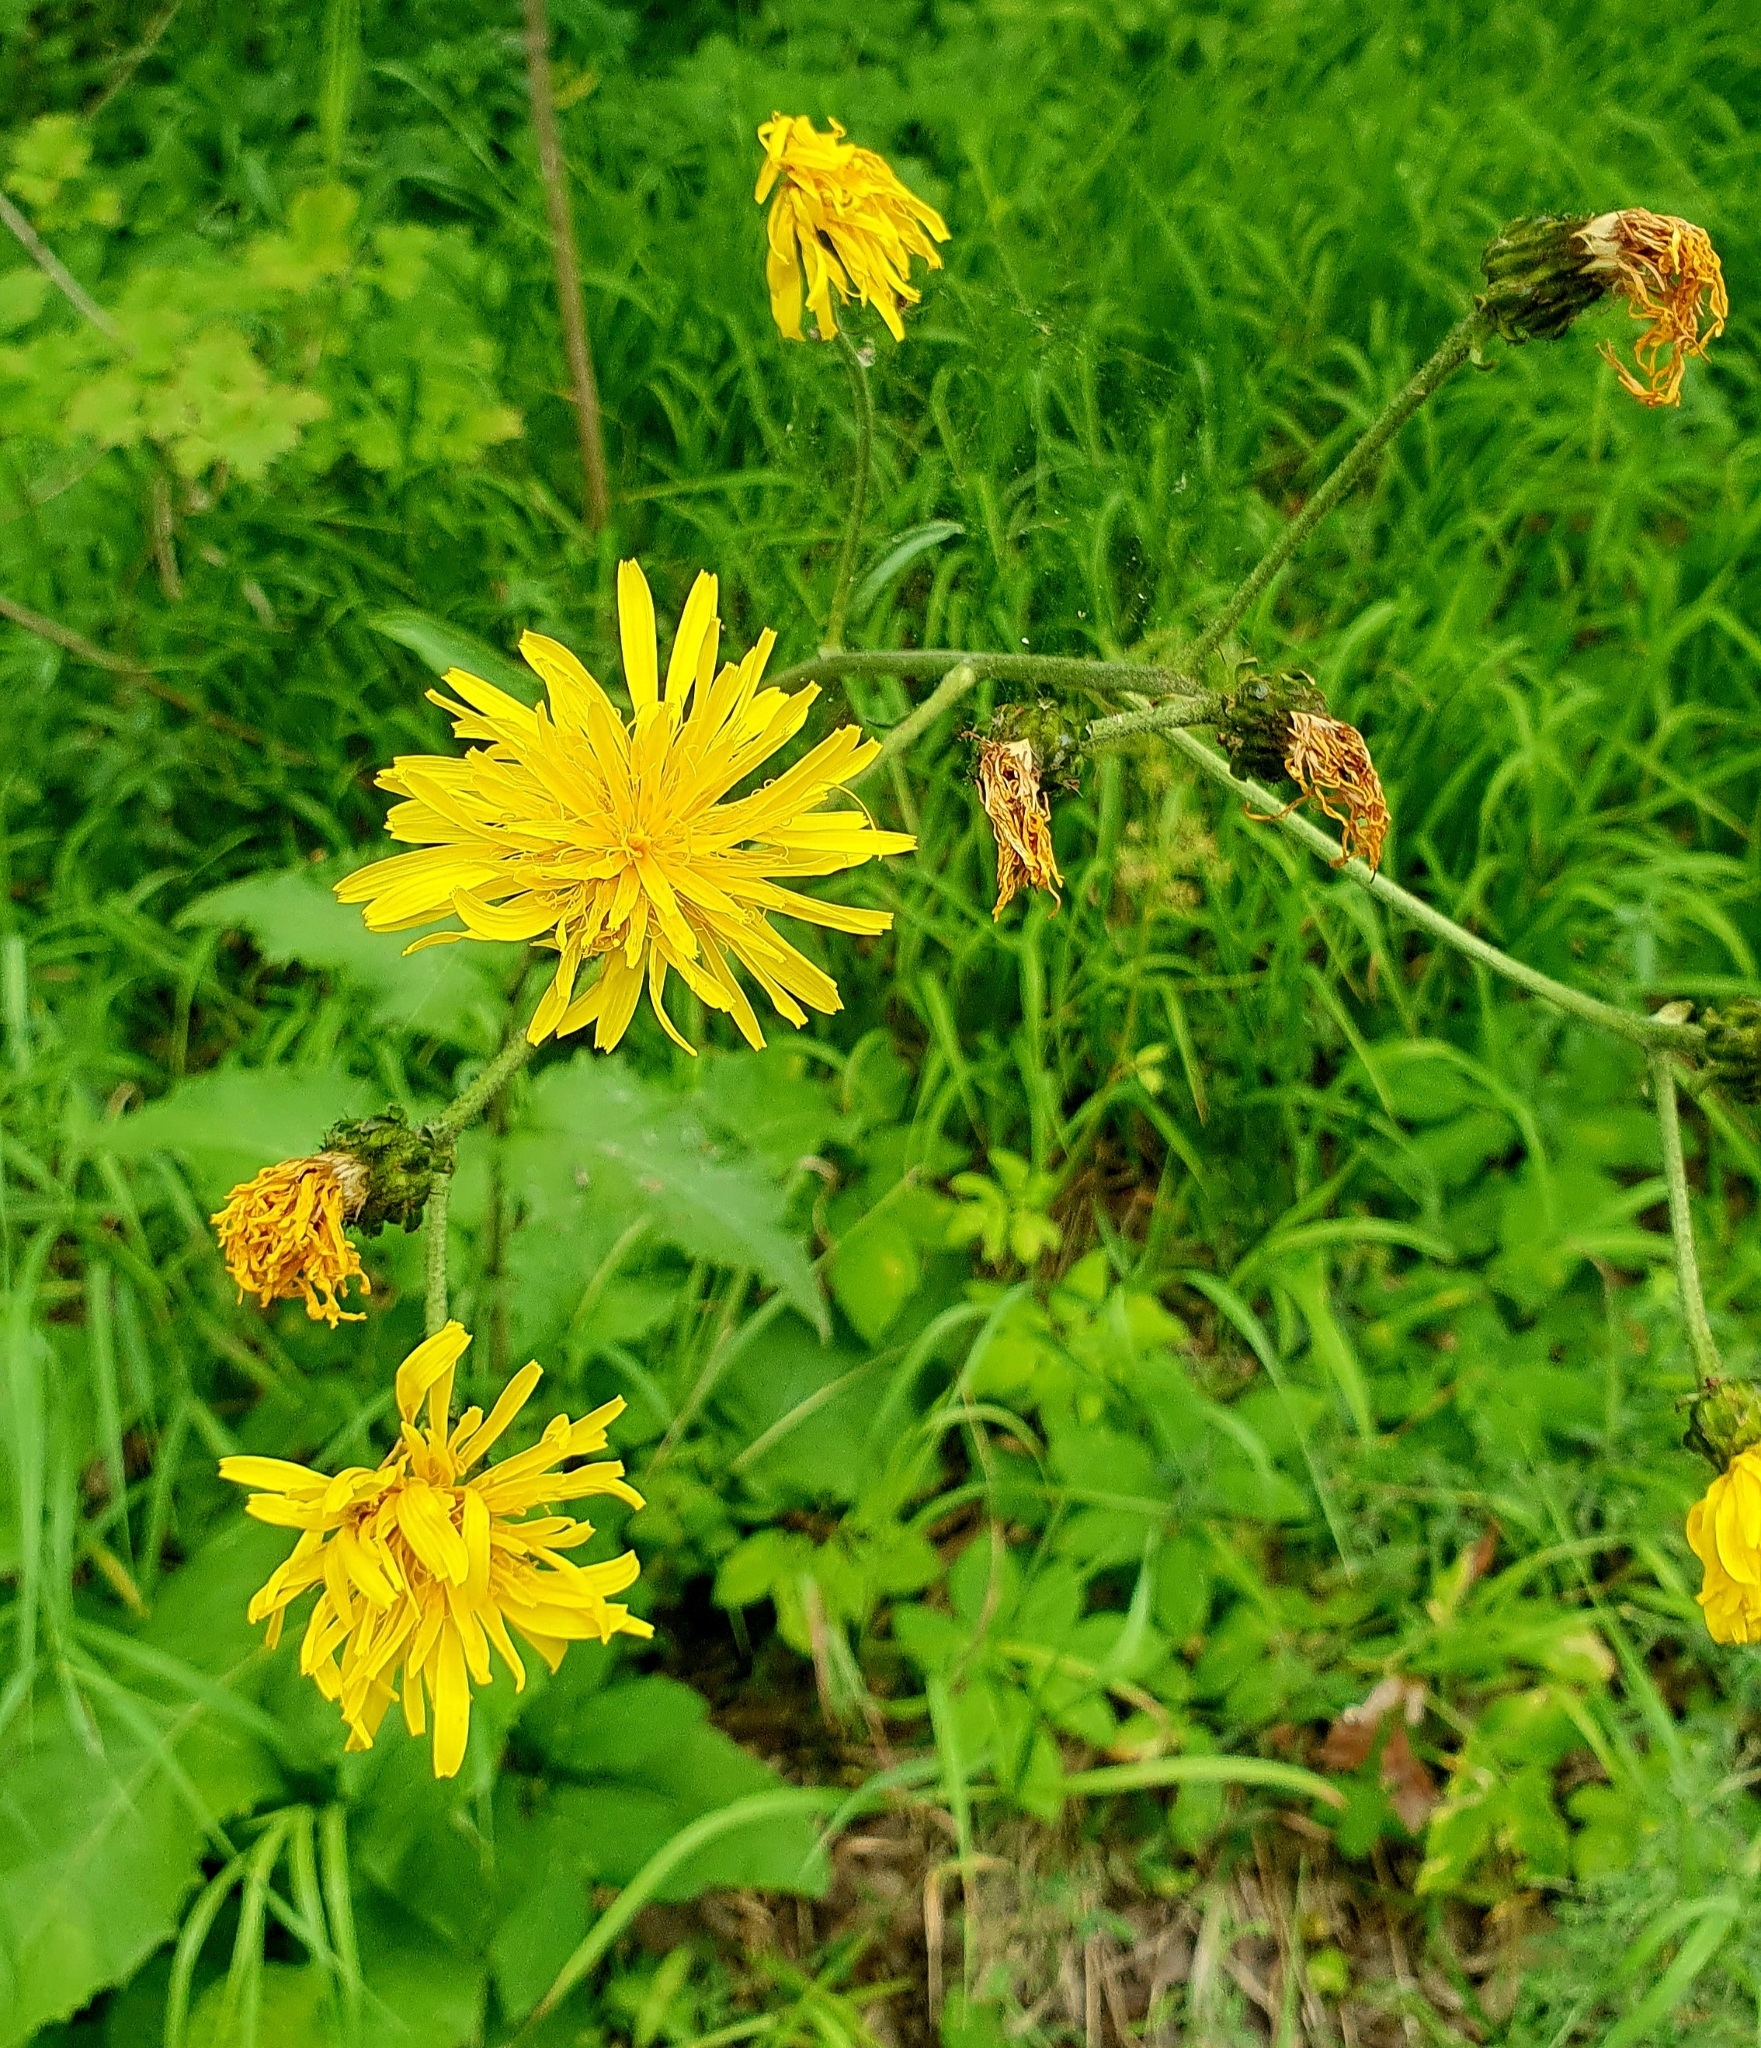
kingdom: Plantae
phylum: Tracheophyta
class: Magnoliopsida
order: Asterales
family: Asteraceae
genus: Crepis
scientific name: Crepis sibirica
